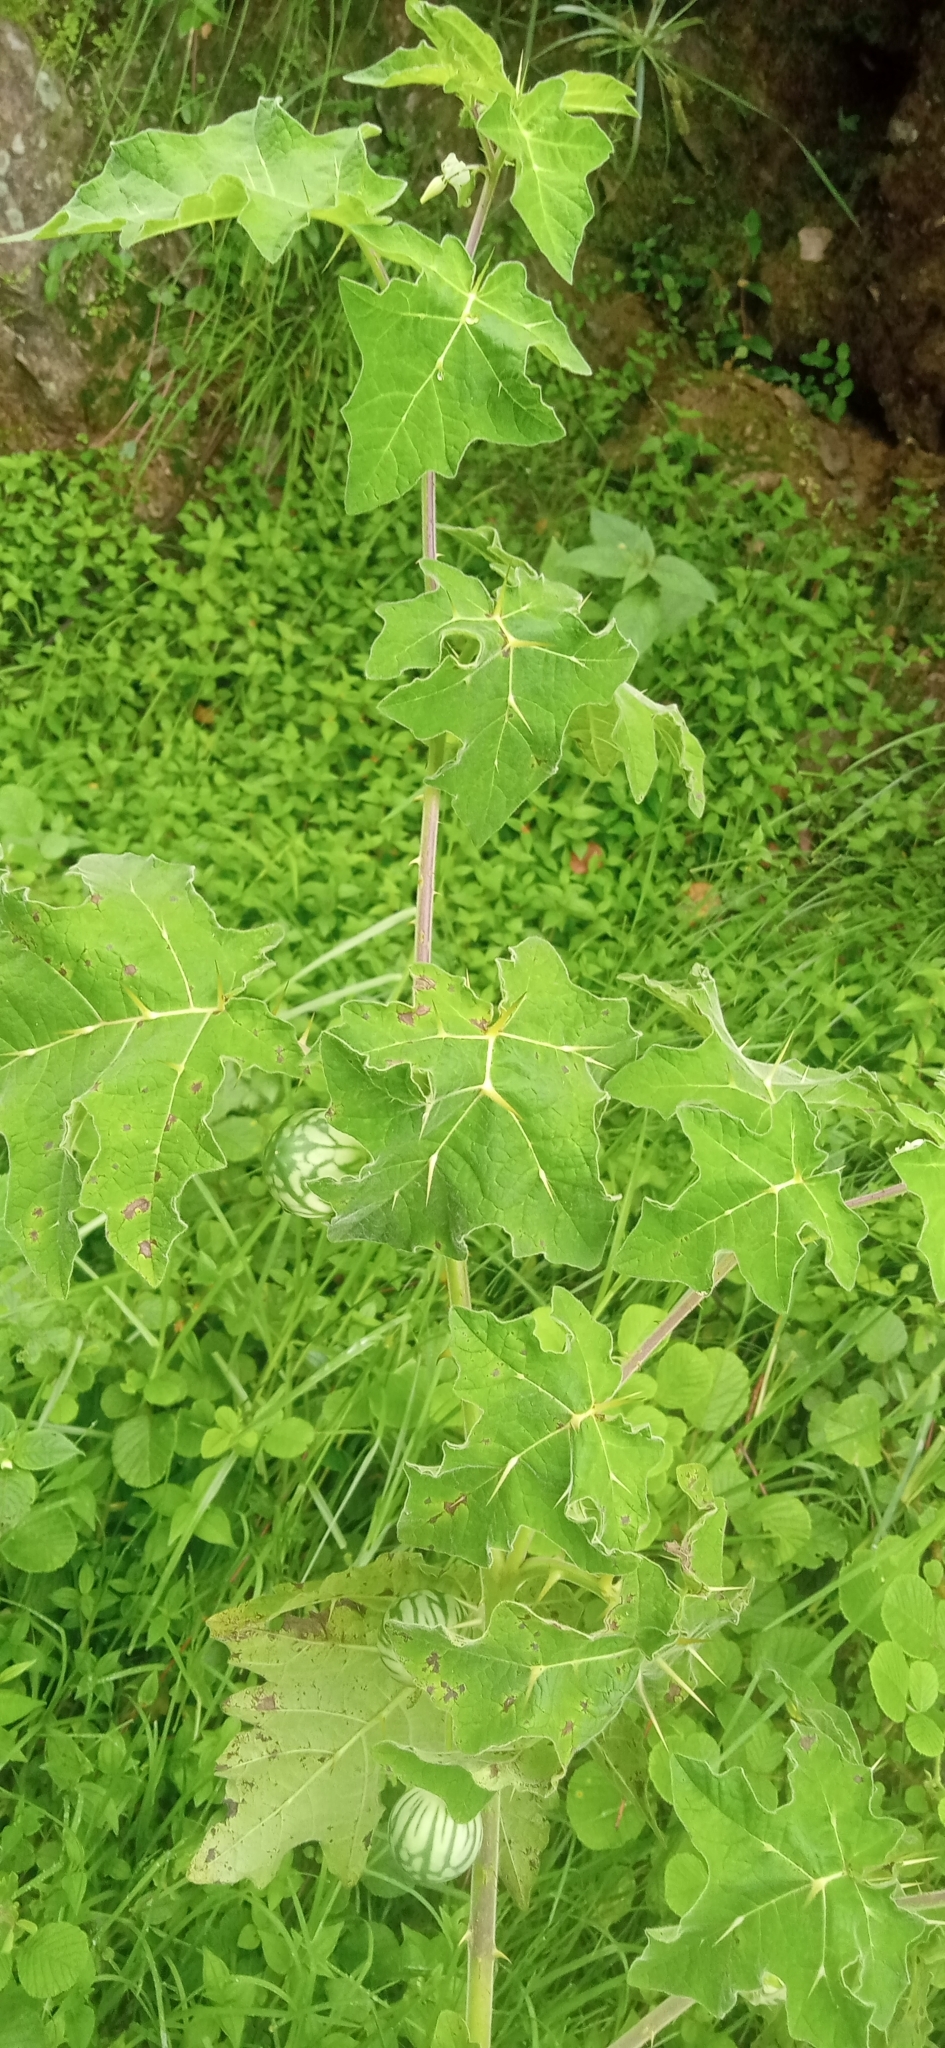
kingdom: Plantae
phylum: Tracheophyta
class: Magnoliopsida
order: Solanales
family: Solanaceae
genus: Solanum
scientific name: Solanum viarum
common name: Tropical soda apple
